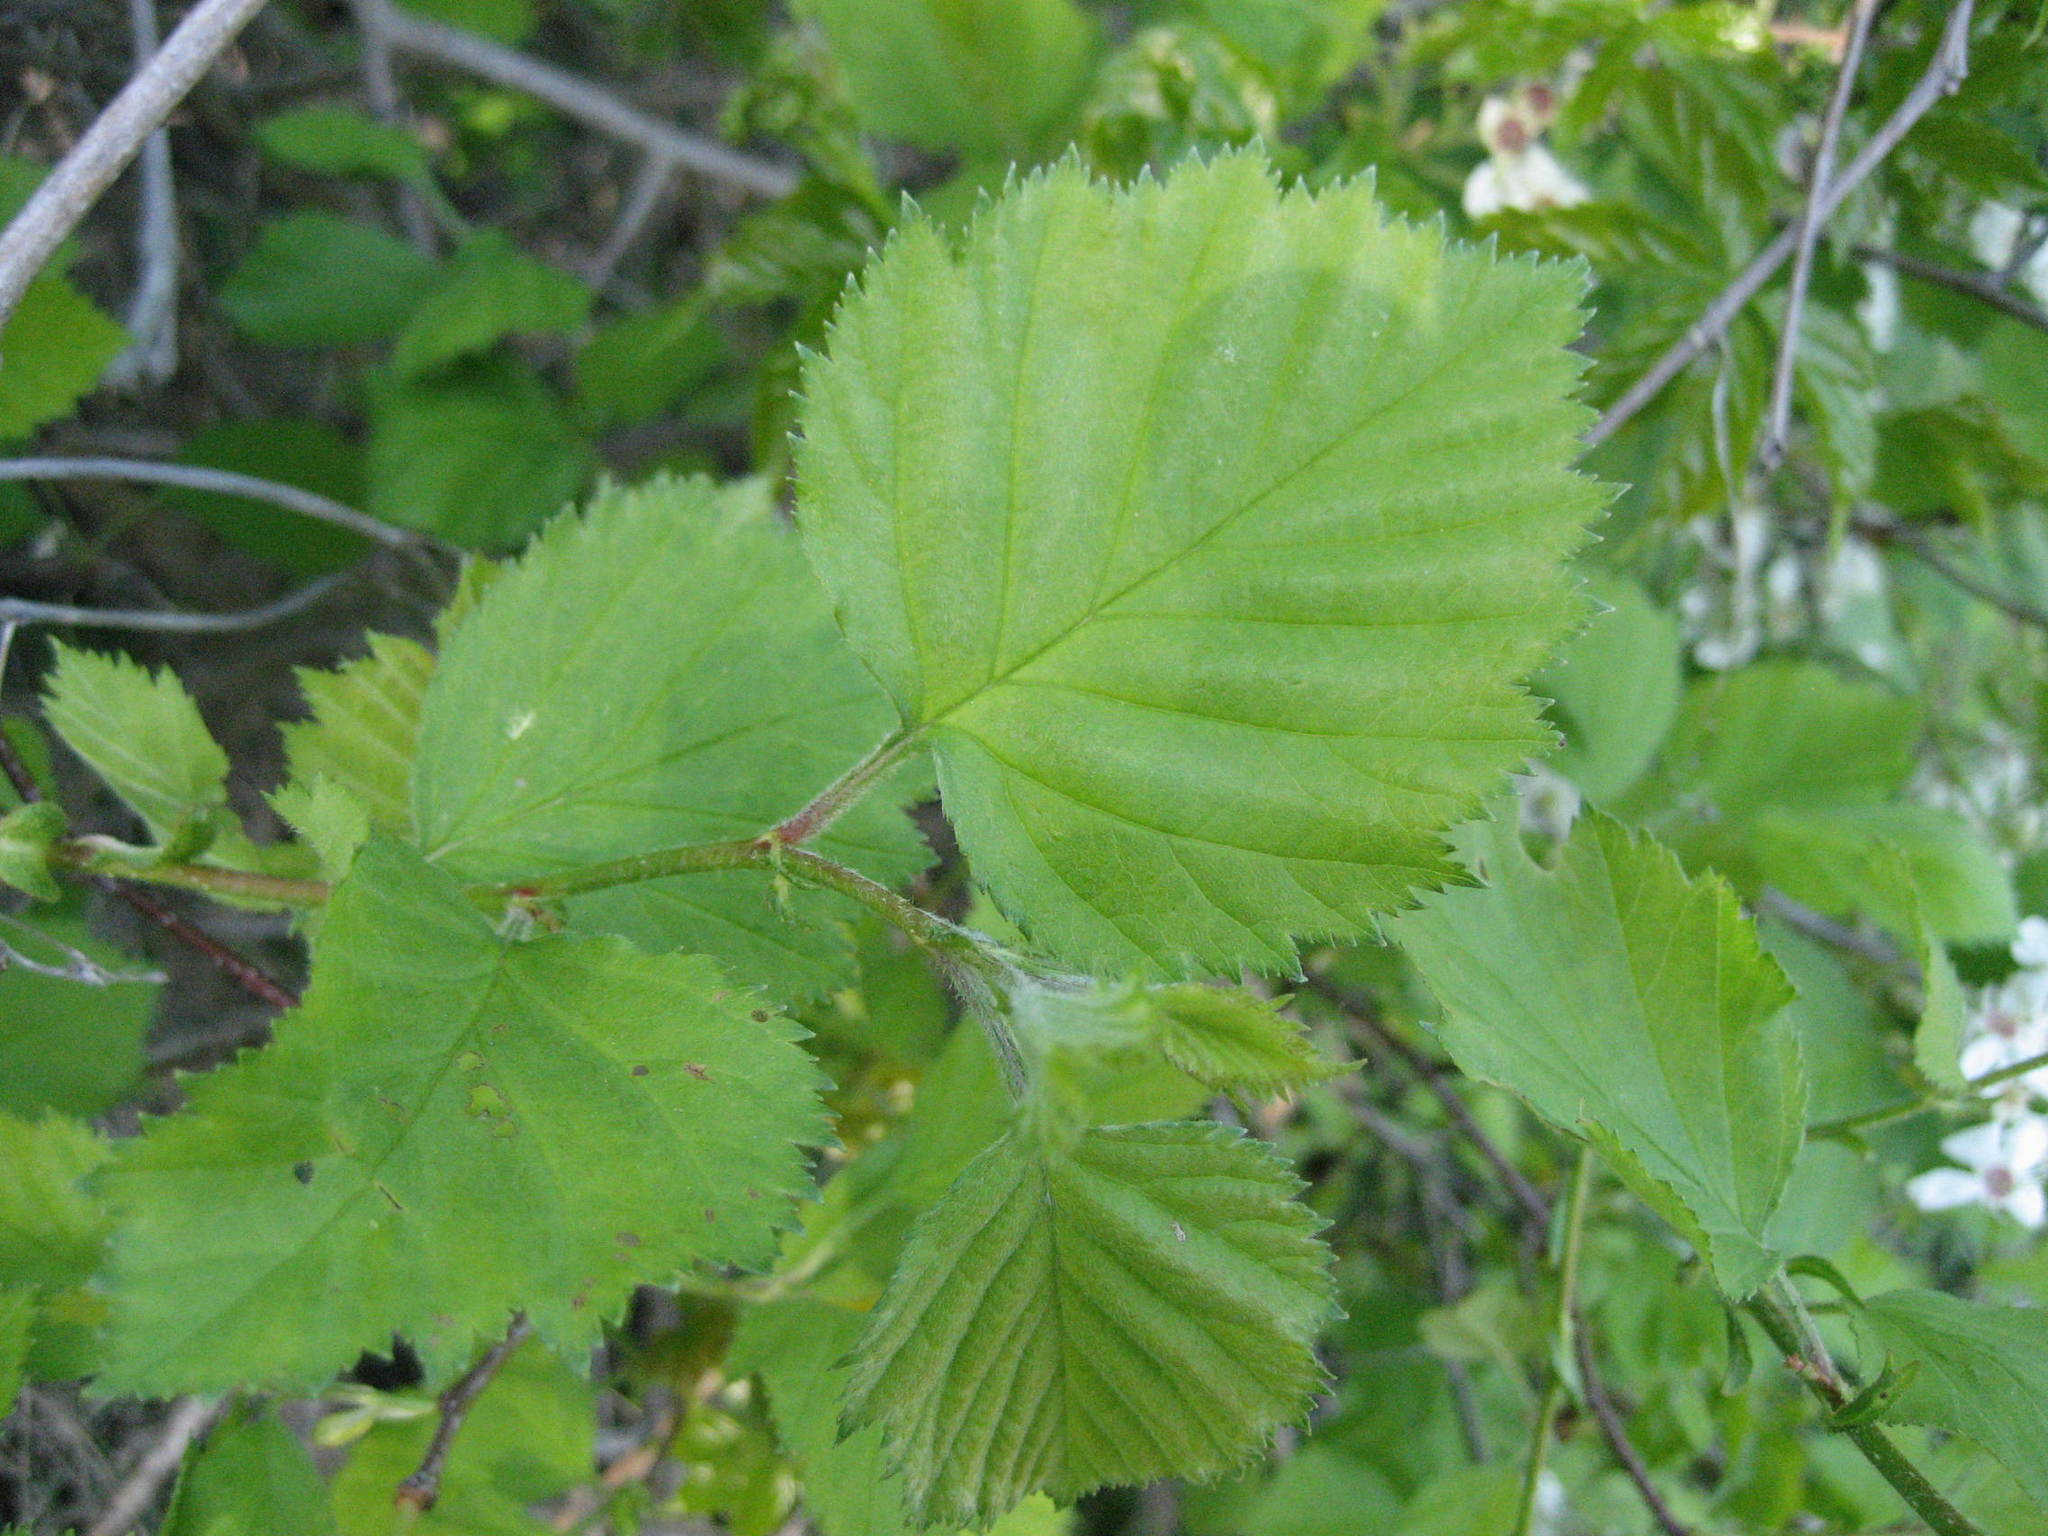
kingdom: Plantae
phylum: Tracheophyta
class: Magnoliopsida
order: Rosales
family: Rosaceae
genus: Crataegus
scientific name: Crataegus submollis
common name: Hairy cockspurthorn
